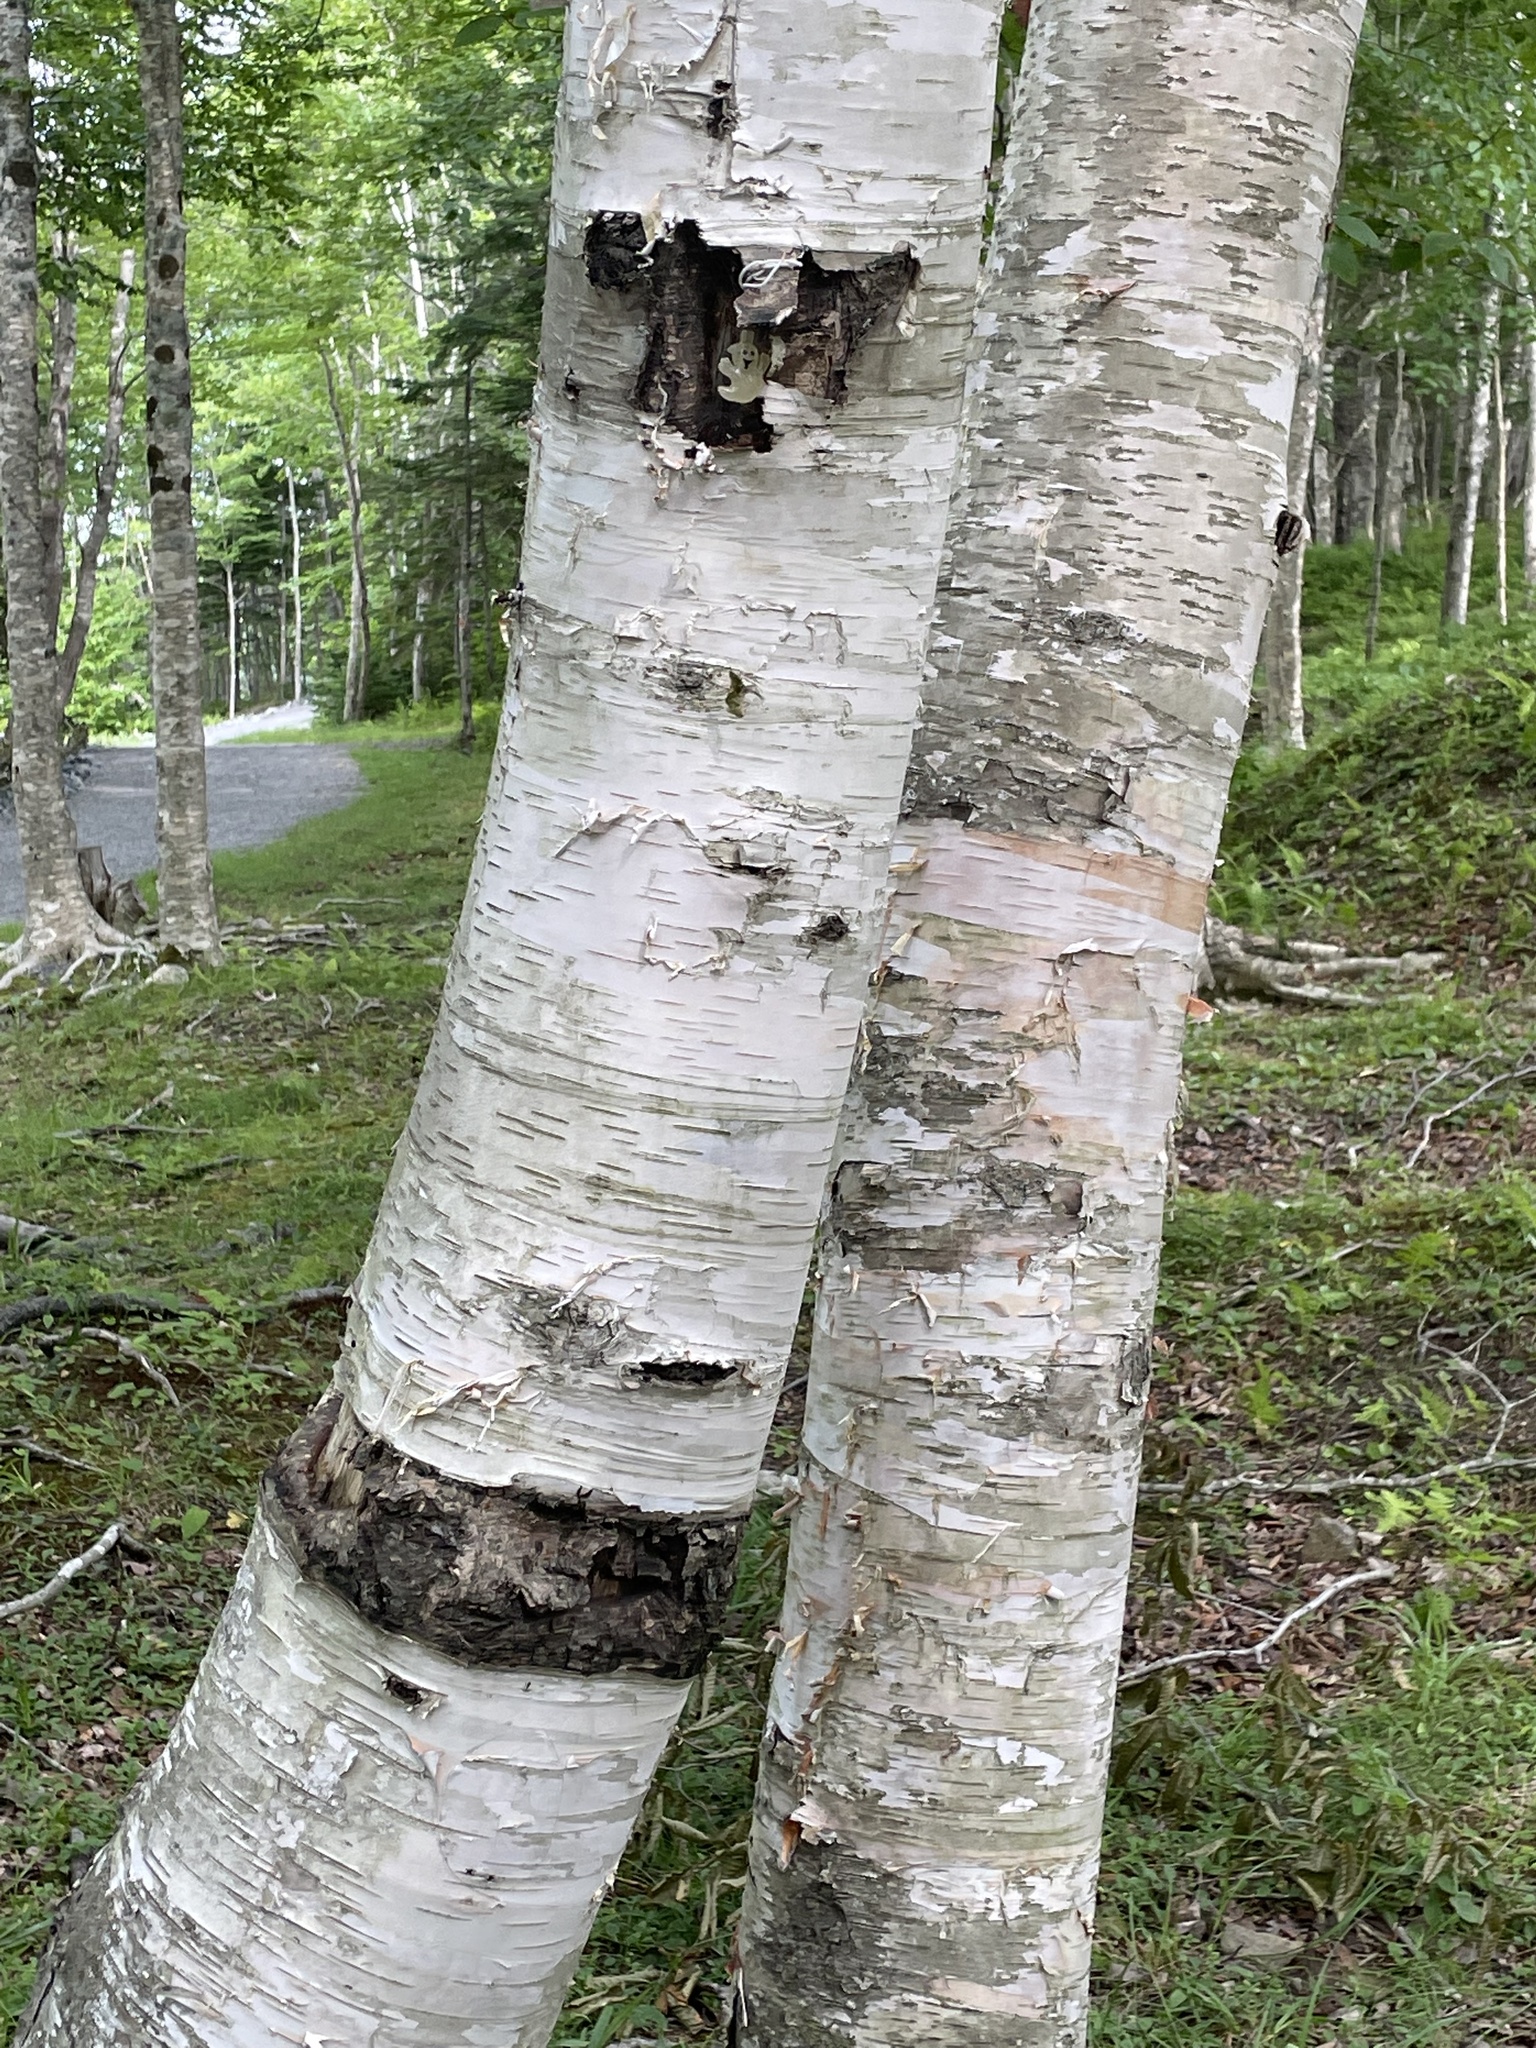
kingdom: Plantae
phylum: Tracheophyta
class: Magnoliopsida
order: Fagales
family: Betulaceae
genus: Betula
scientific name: Betula papyrifera
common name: Paper birch
